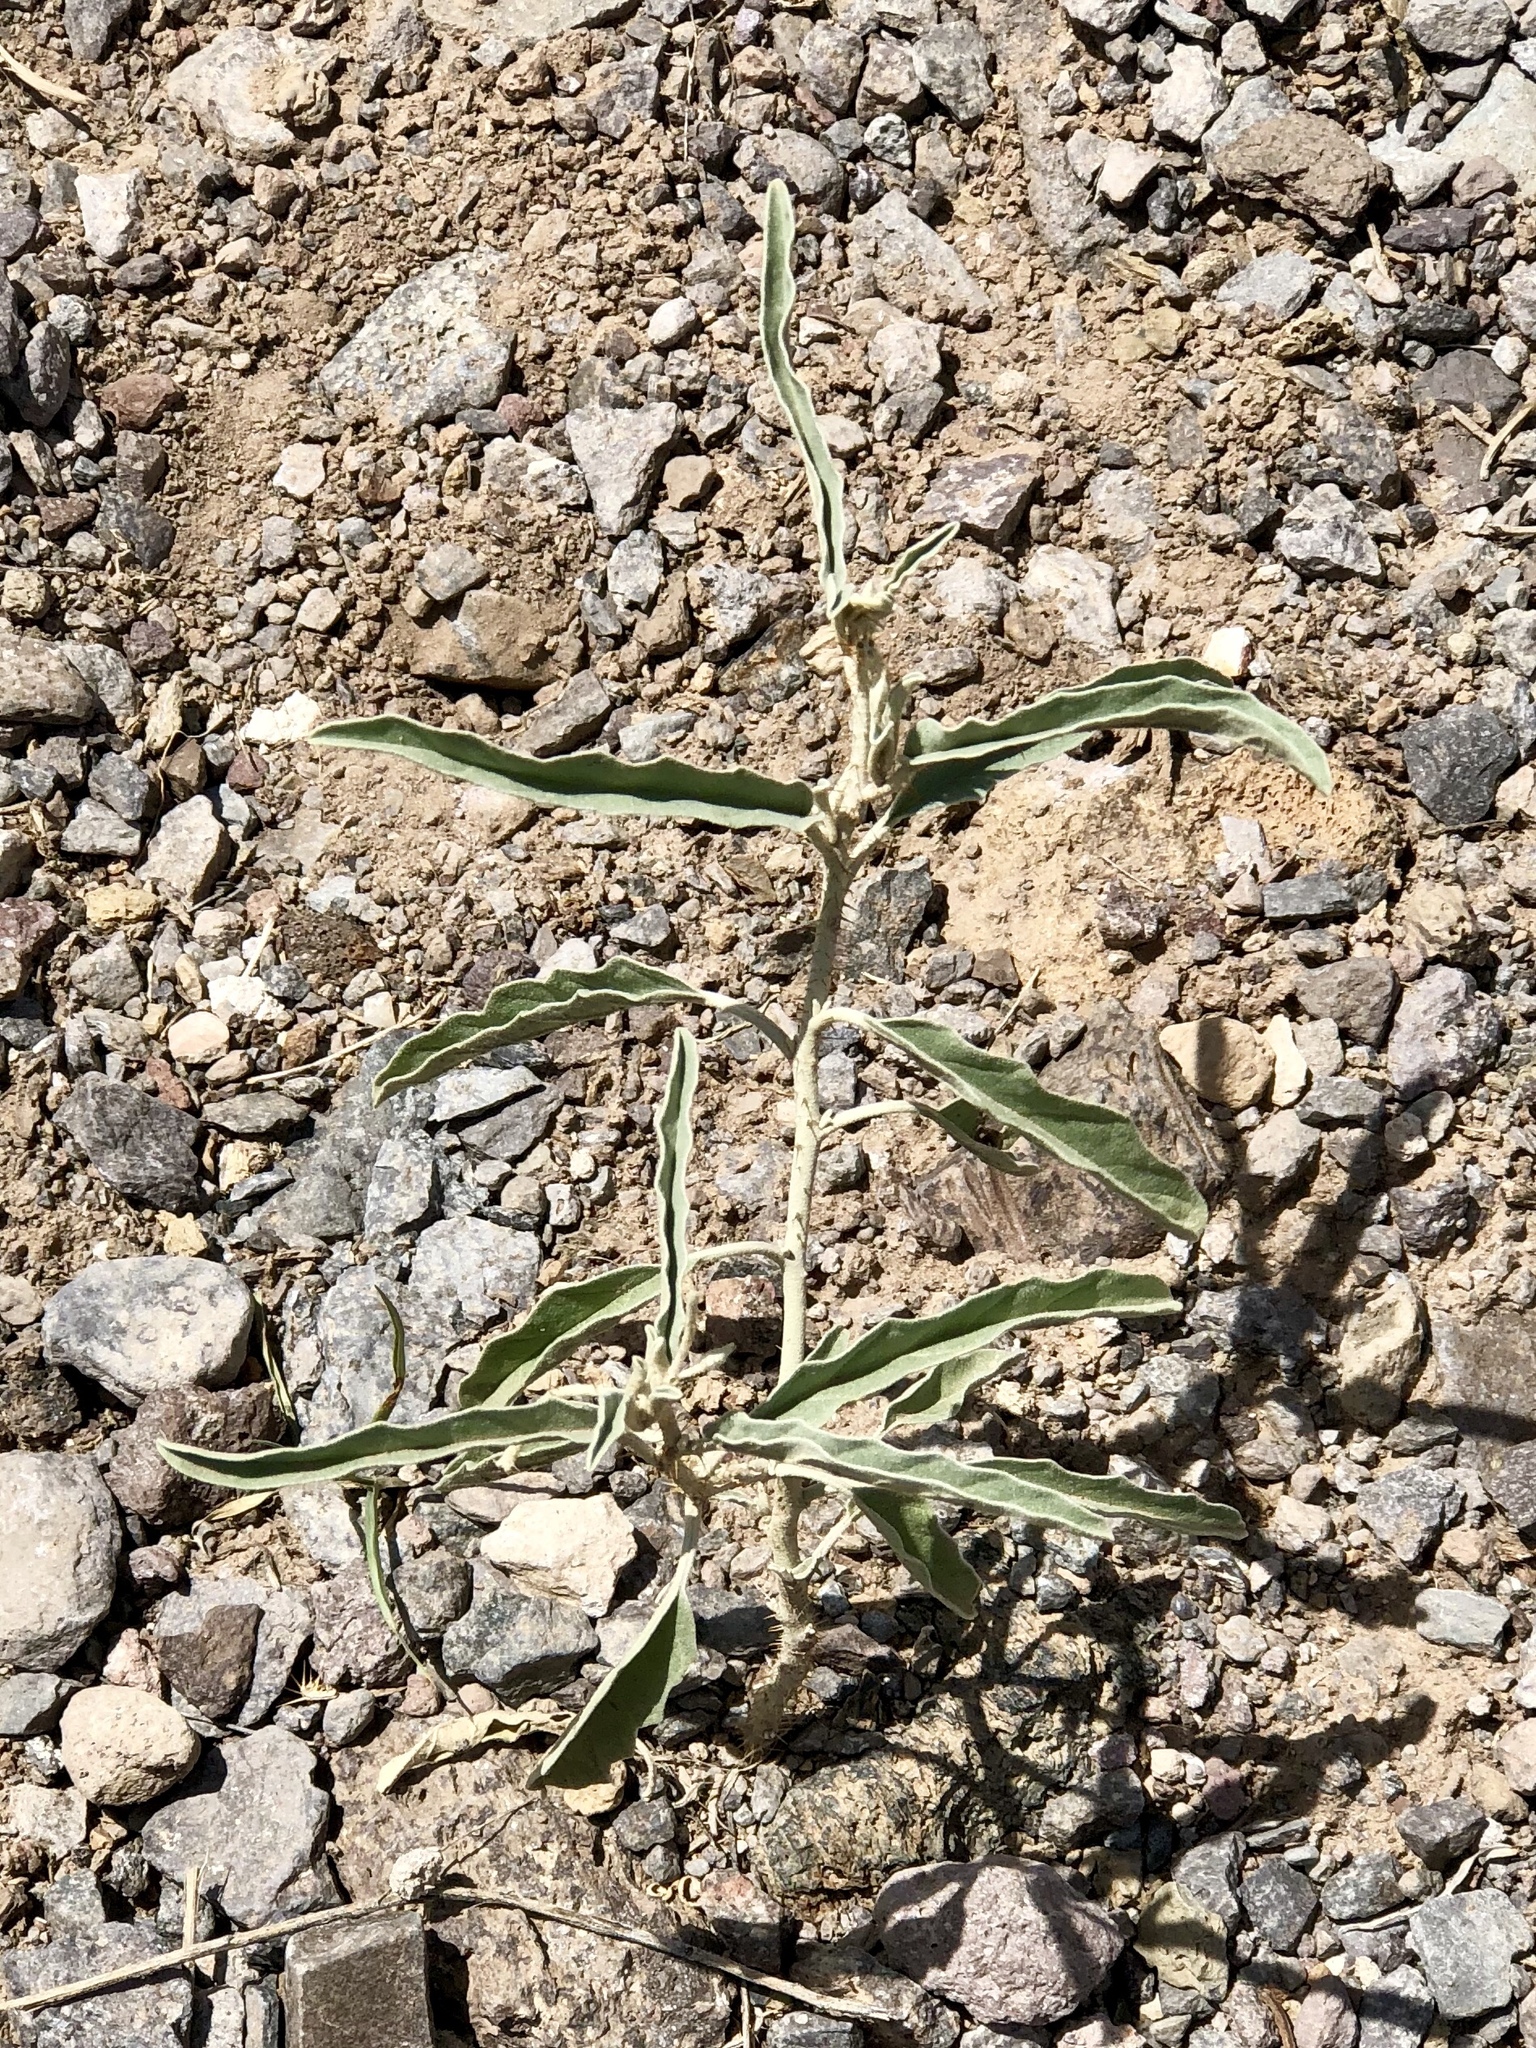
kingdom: Plantae
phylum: Tracheophyta
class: Magnoliopsida
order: Solanales
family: Solanaceae
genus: Solanum
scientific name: Solanum elaeagnifolium
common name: Silverleaf nightshade
